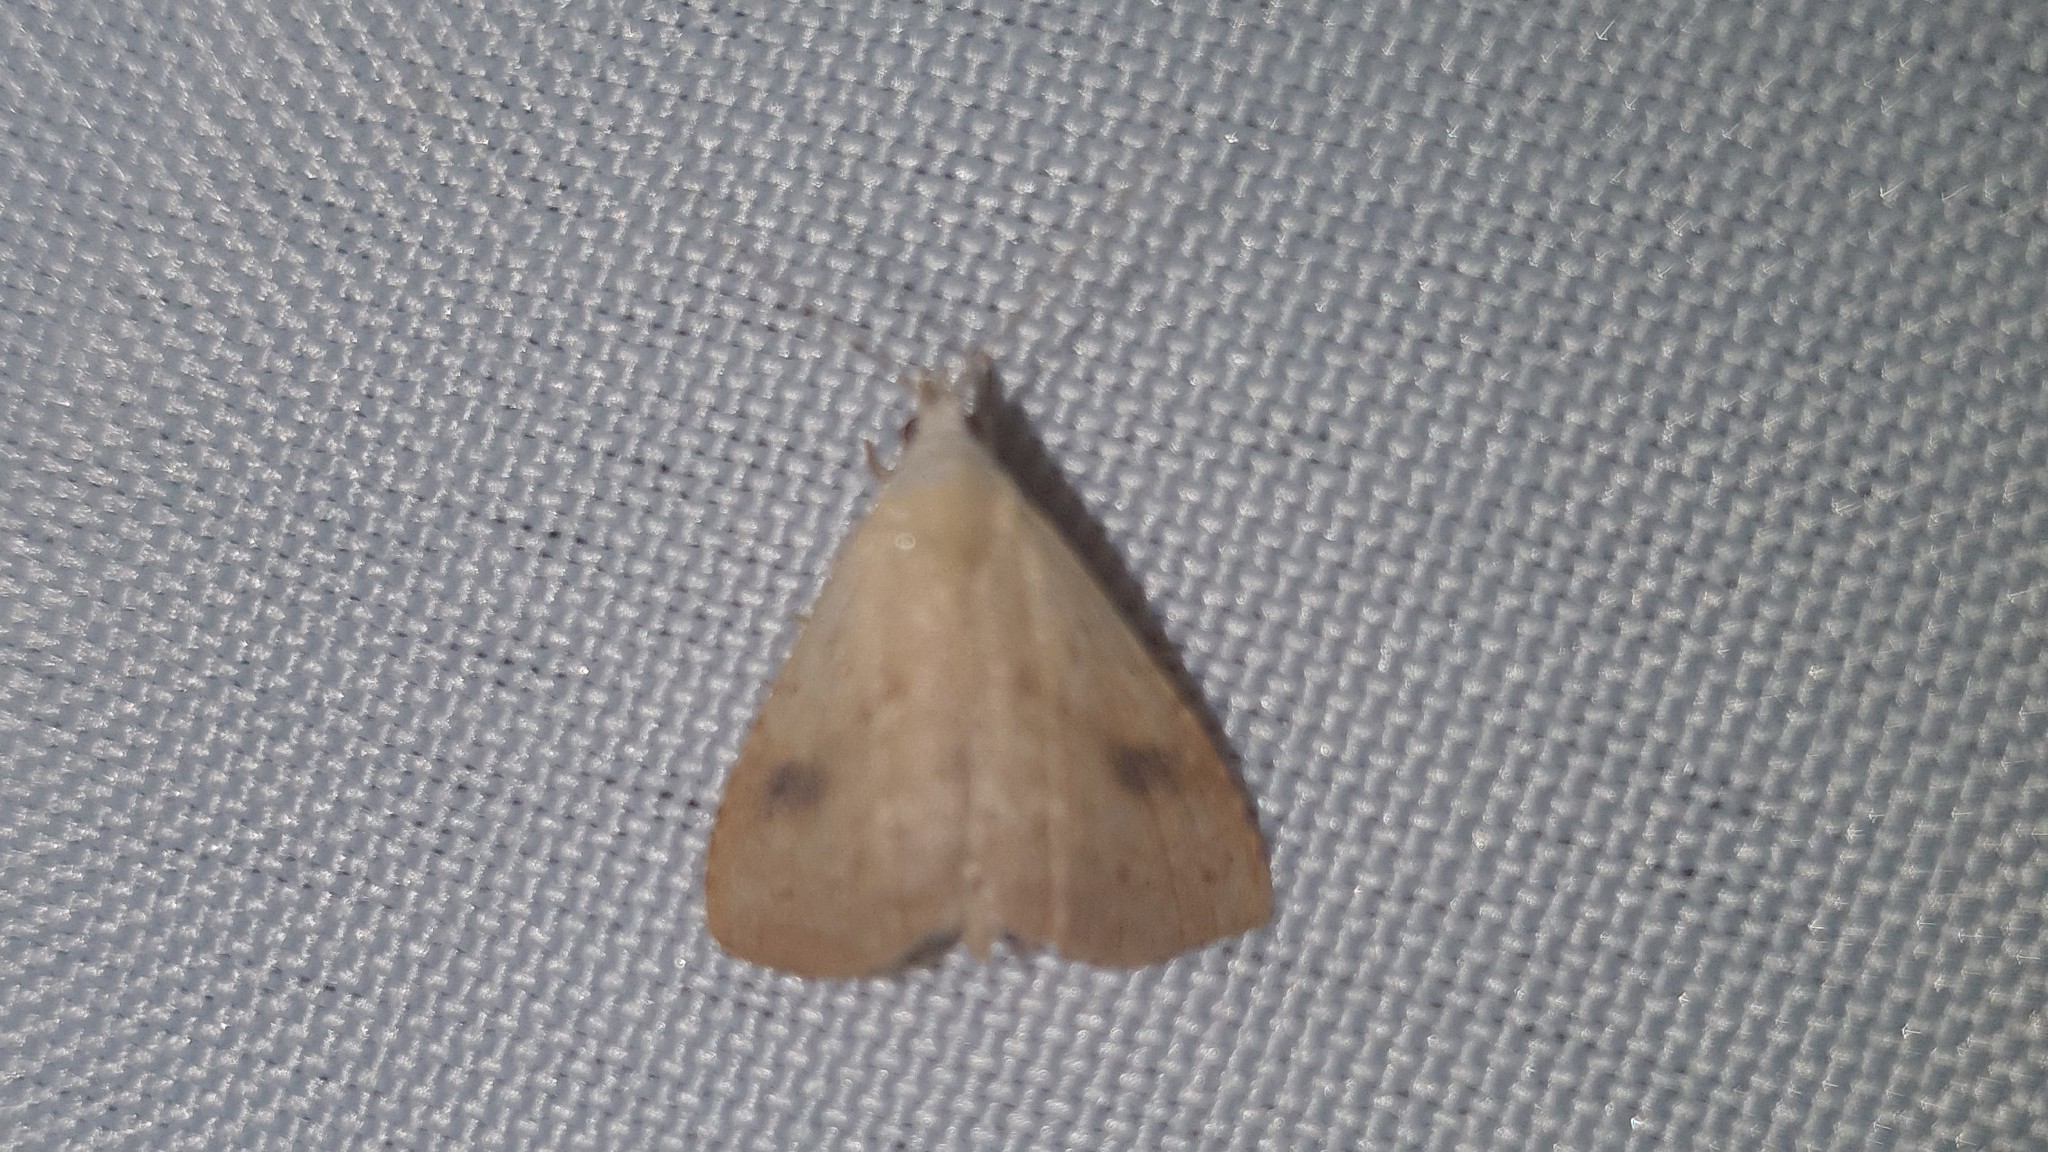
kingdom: Animalia
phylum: Arthropoda
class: Insecta
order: Lepidoptera
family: Erebidae
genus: Rivula
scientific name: Rivula sericealis
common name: Straw dot
